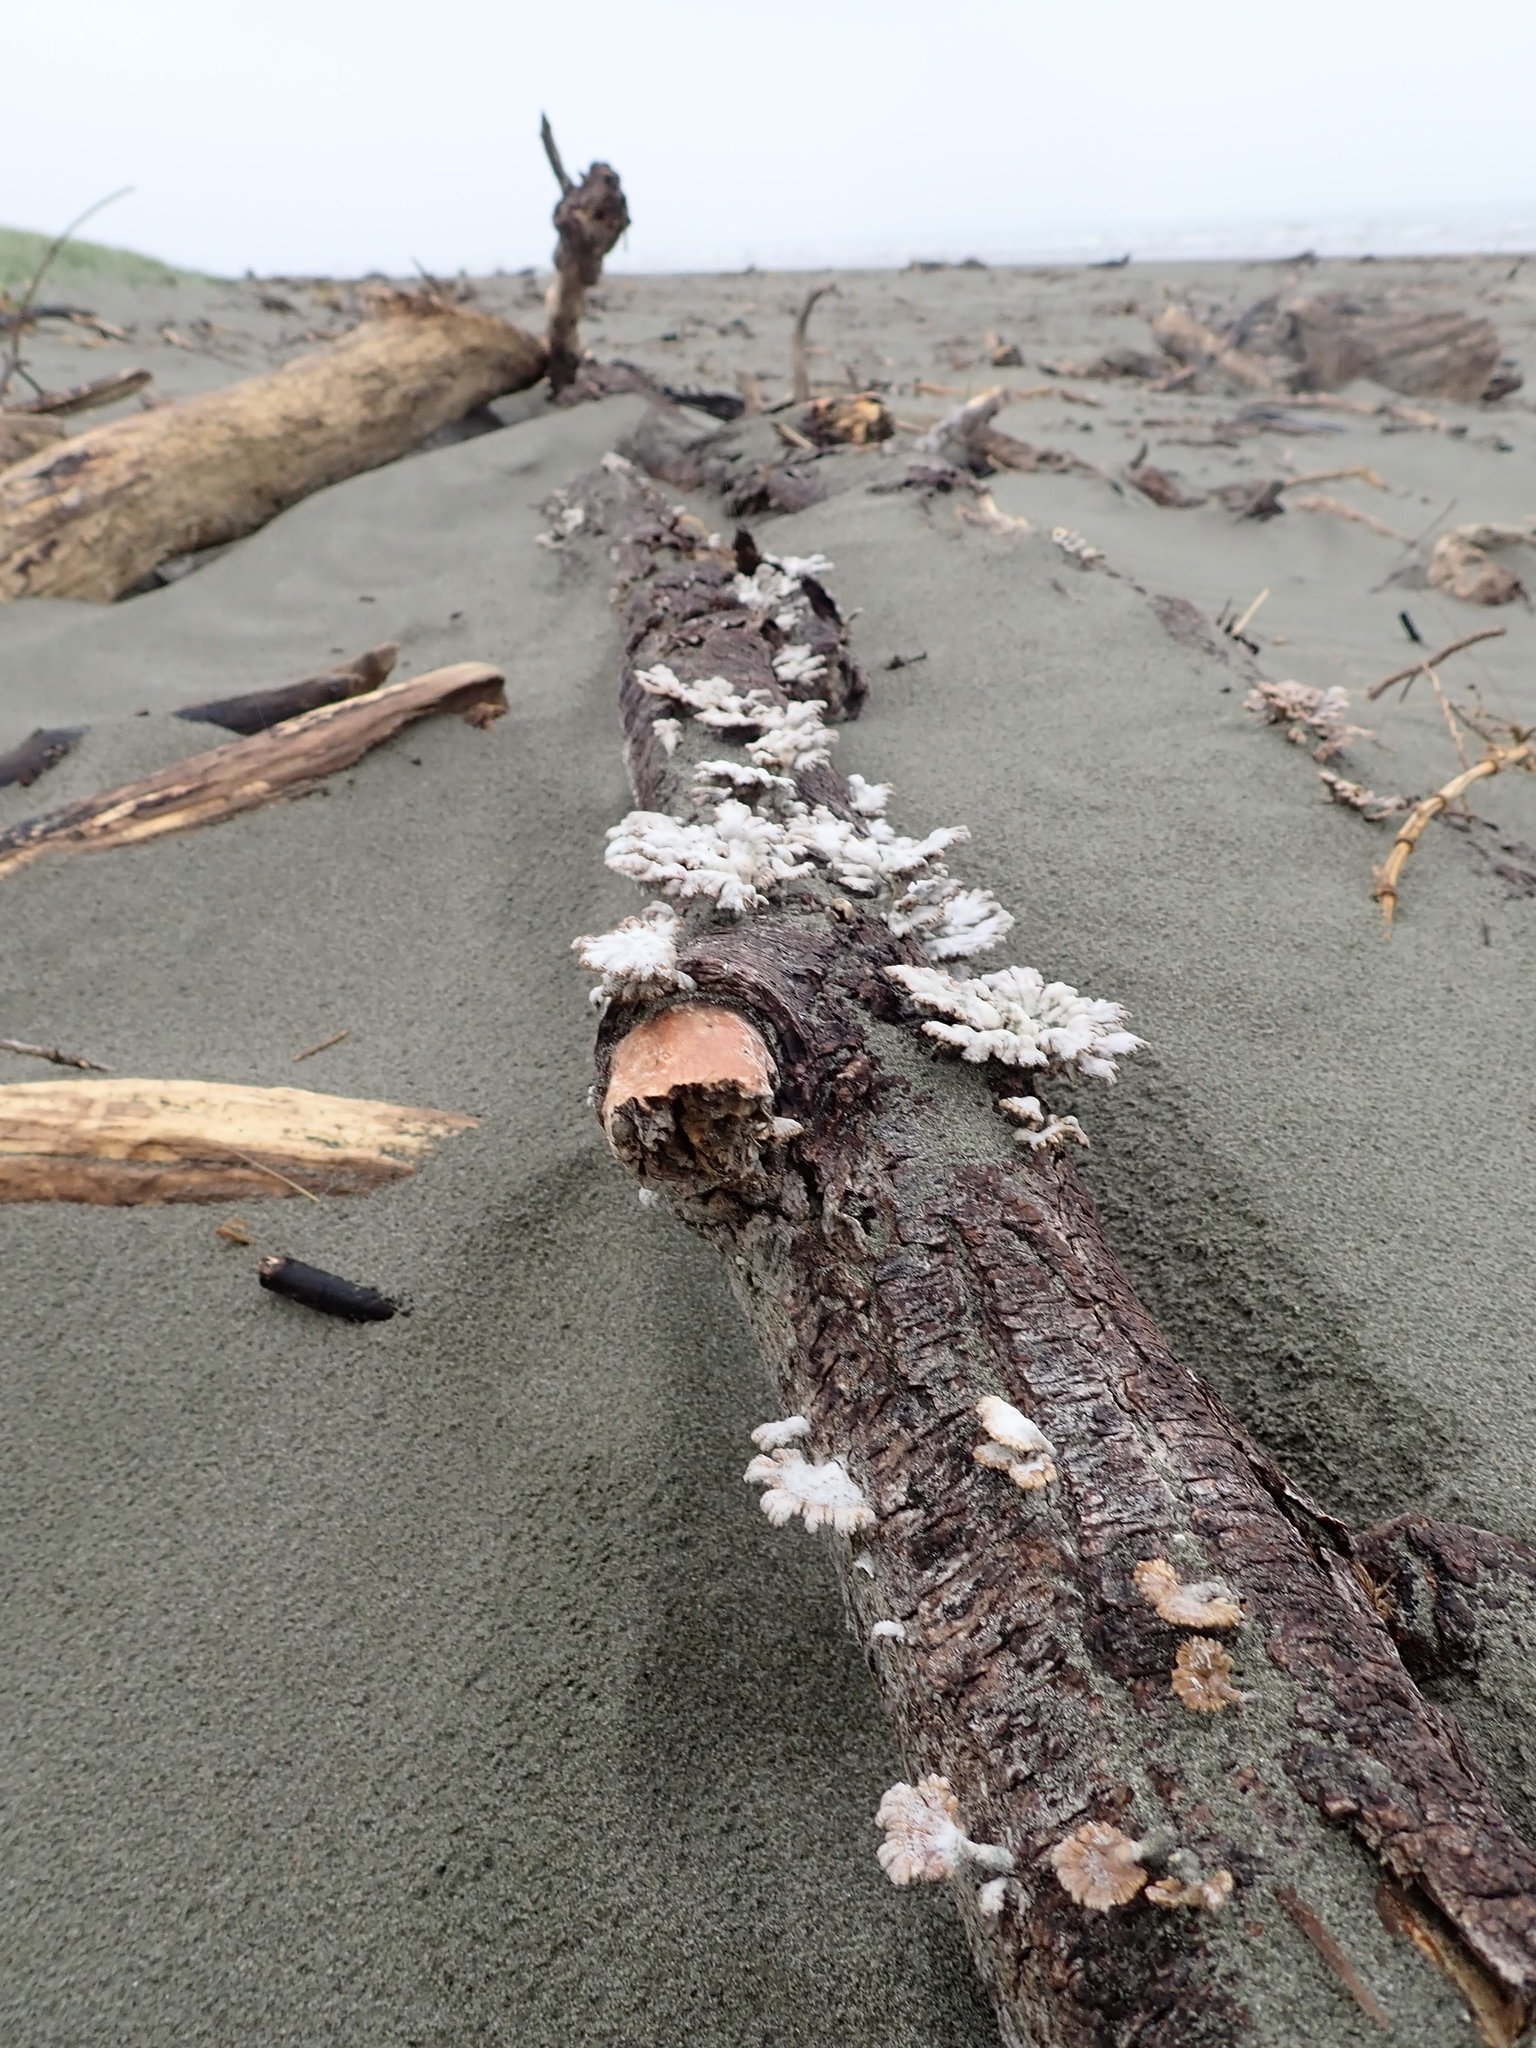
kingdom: Fungi
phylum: Basidiomycota
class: Agaricomycetes
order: Agaricales
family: Schizophyllaceae
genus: Schizophyllum
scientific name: Schizophyllum commune
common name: Common porecrust
